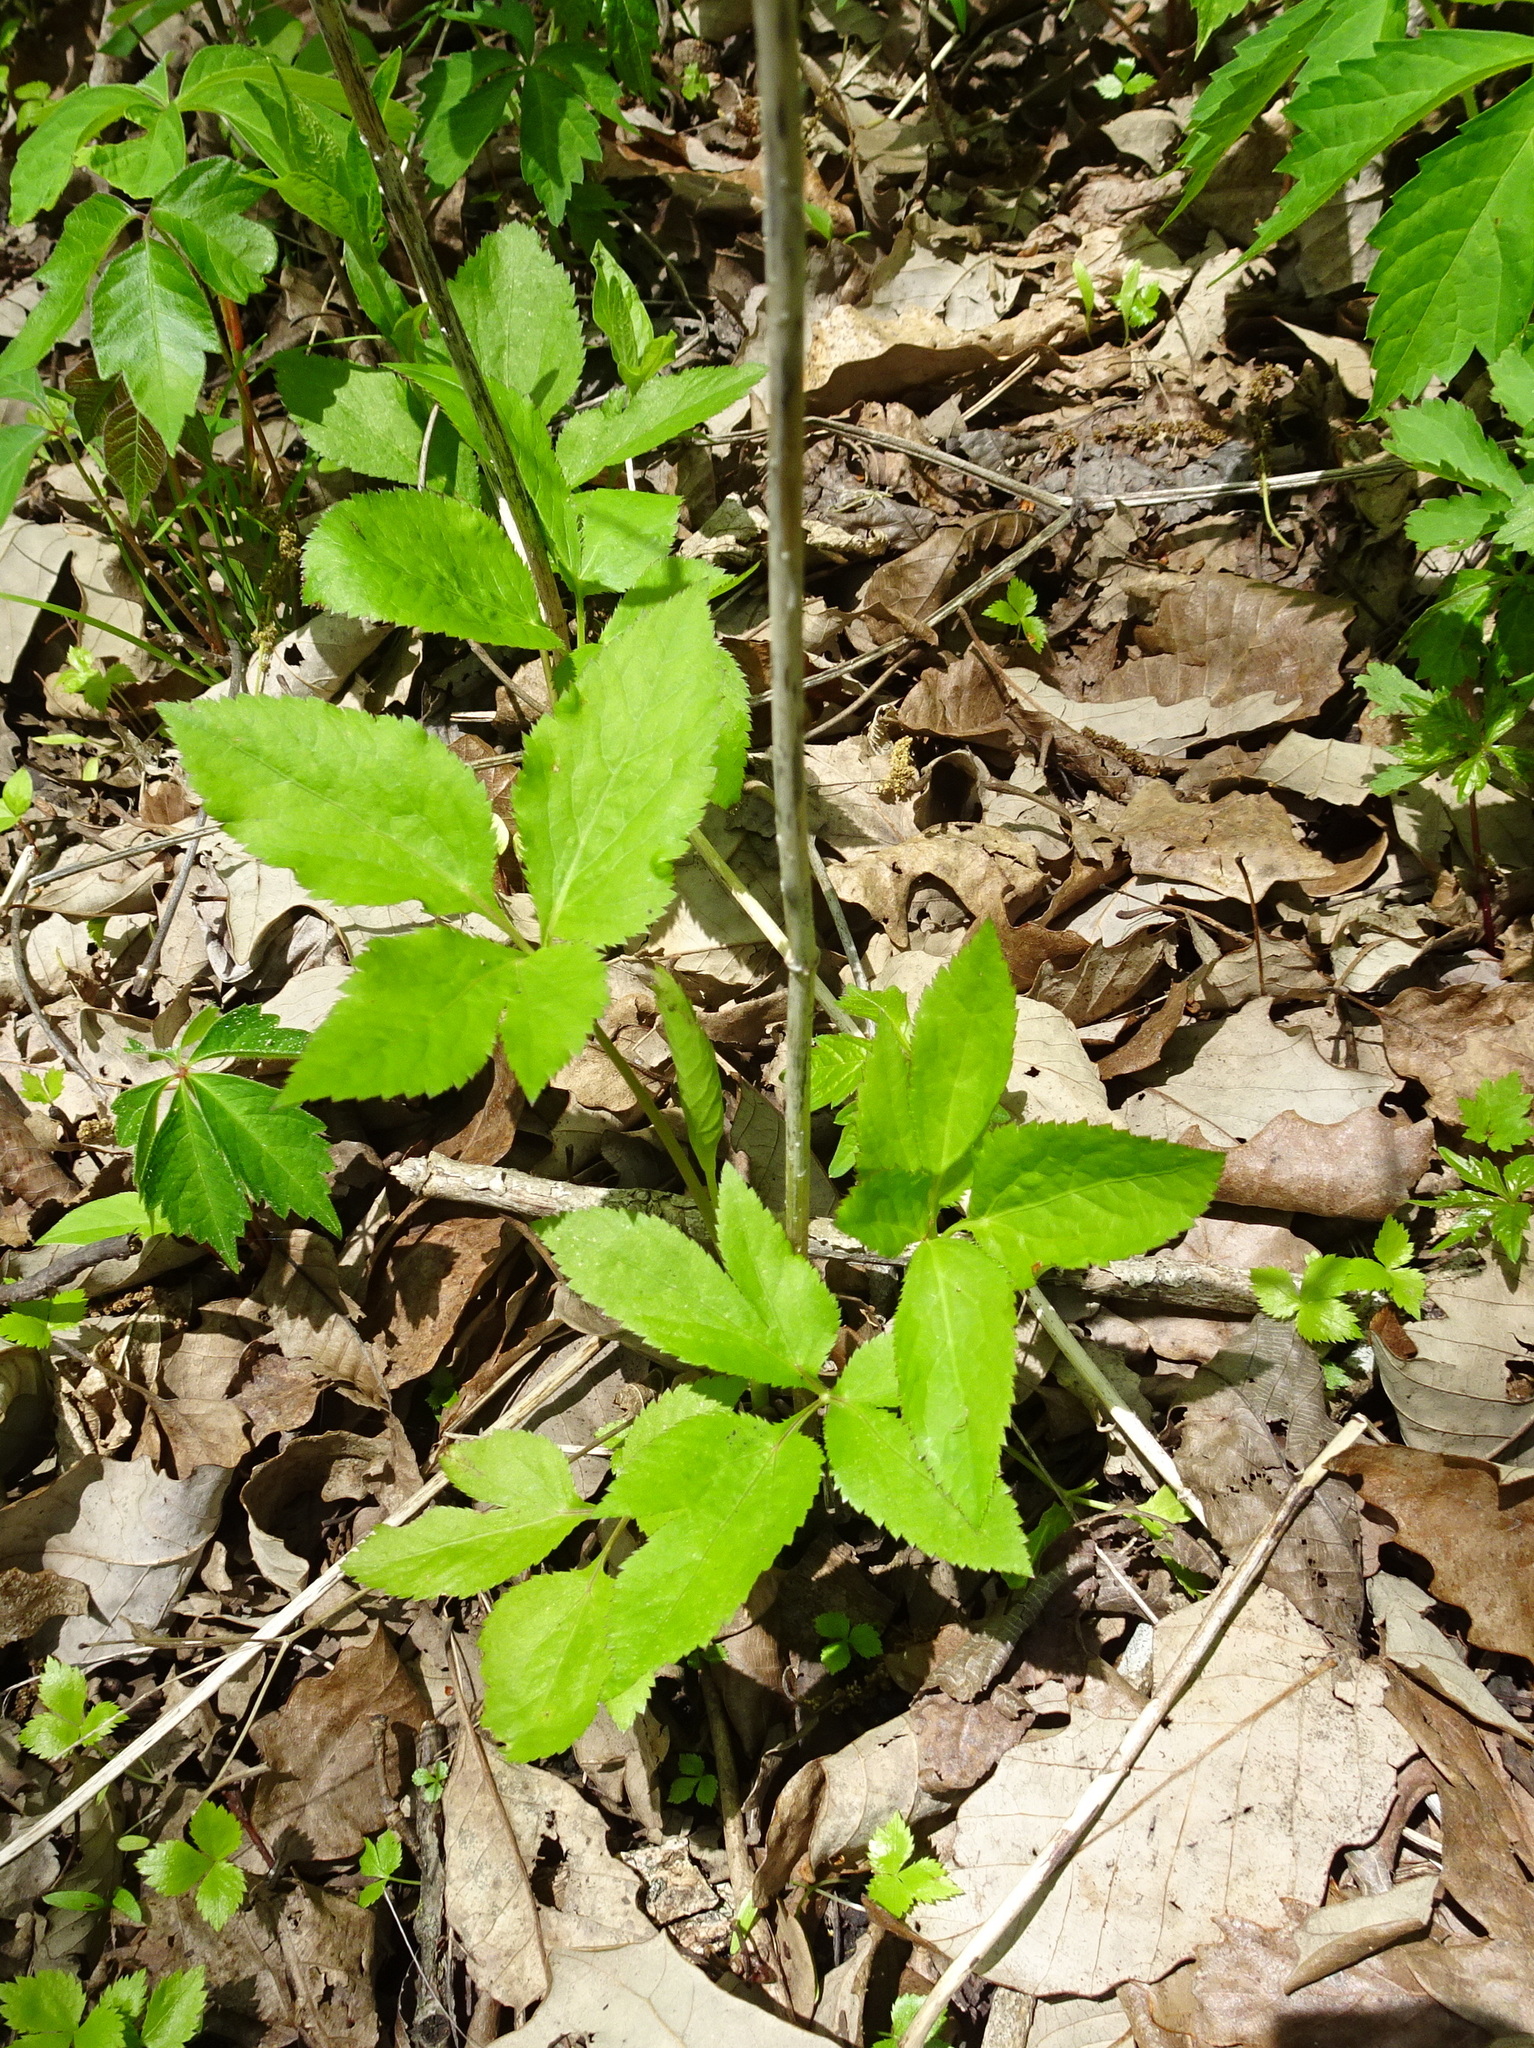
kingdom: Plantae
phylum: Tracheophyta
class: Magnoliopsida
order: Apiales
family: Apiaceae
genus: Cryptotaenia
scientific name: Cryptotaenia canadensis
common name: Honewort
